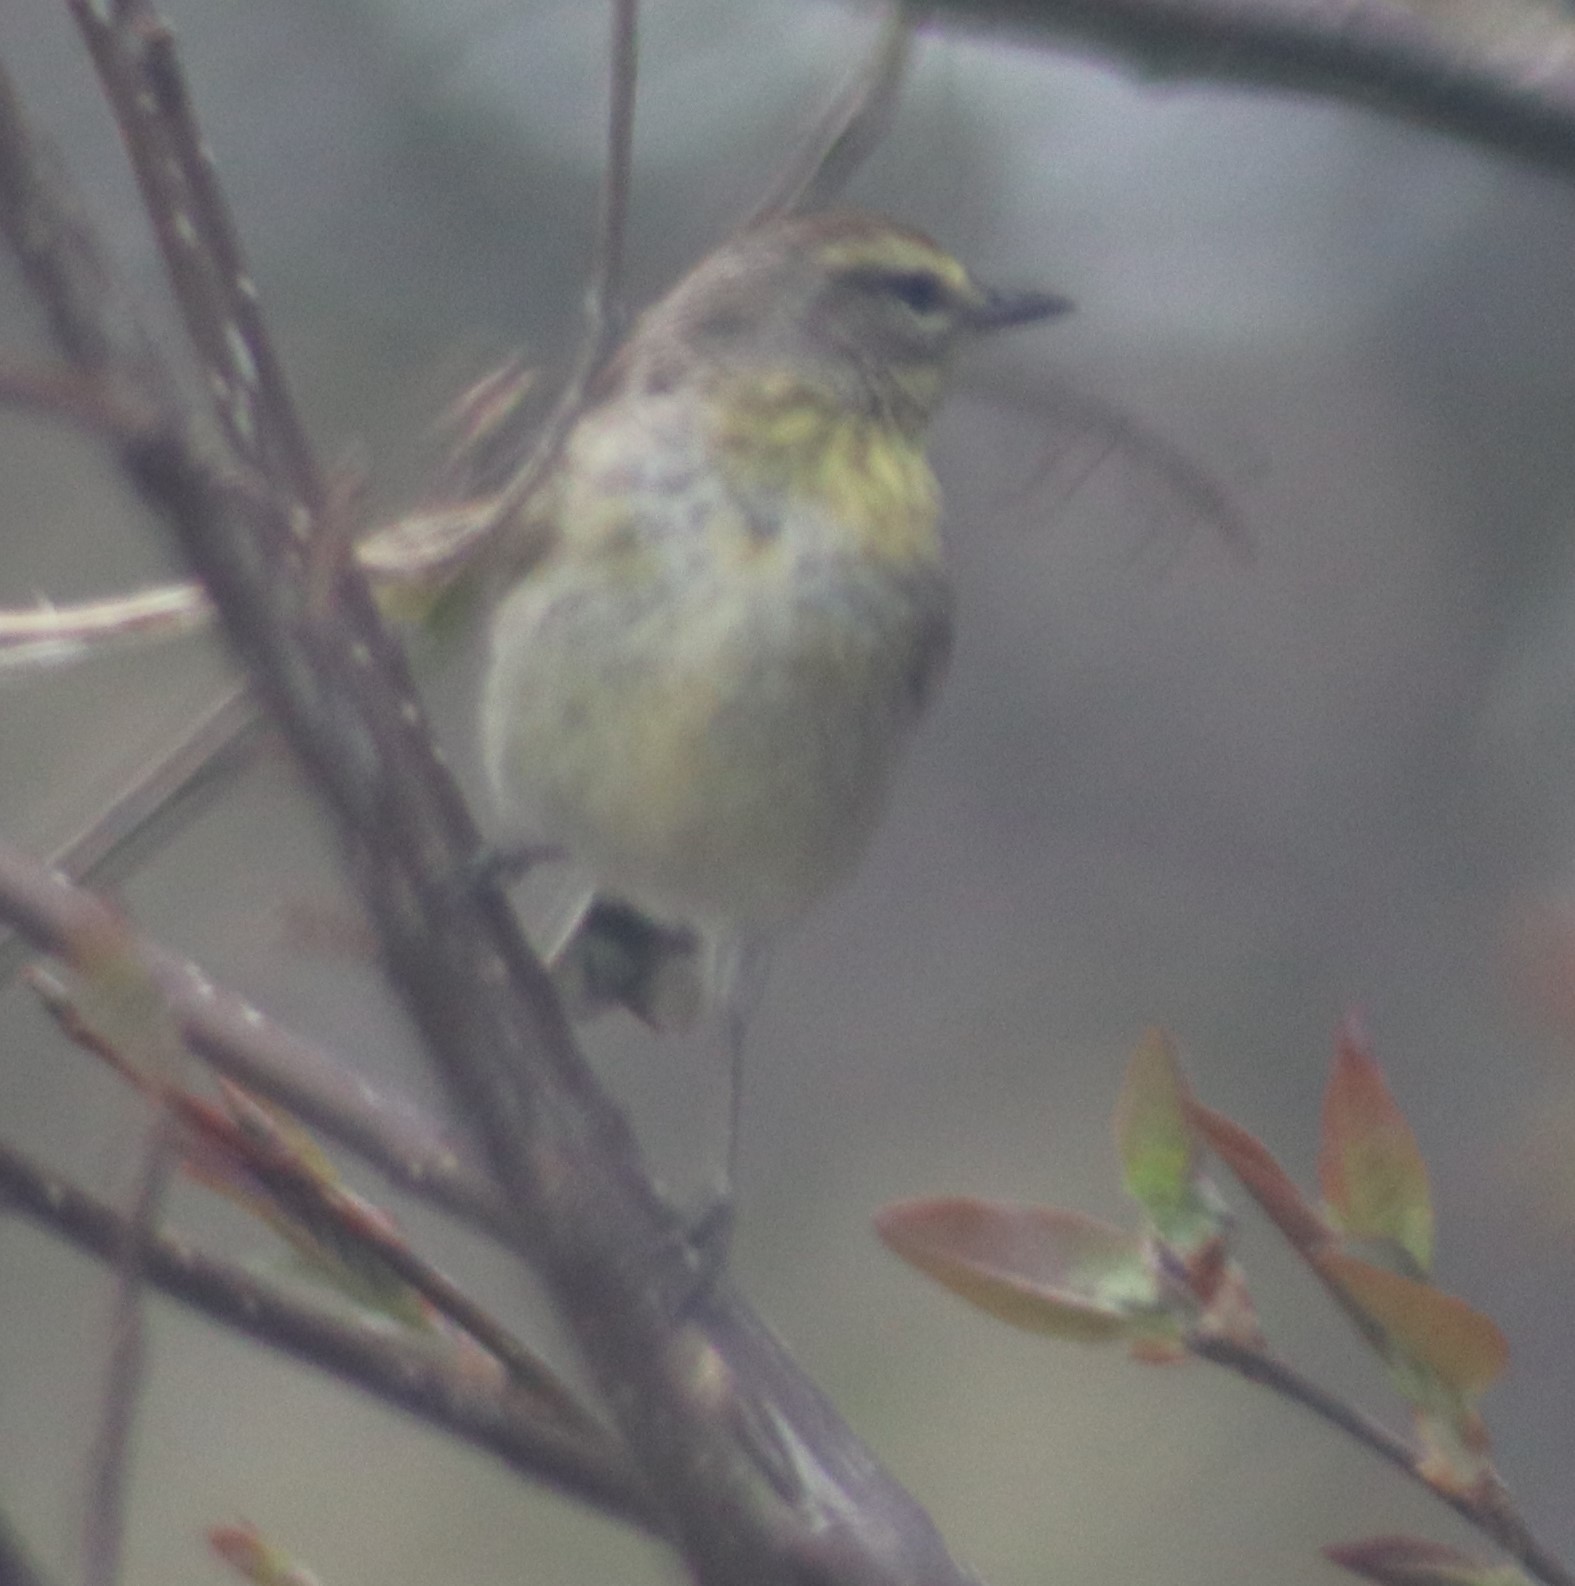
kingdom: Animalia
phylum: Chordata
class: Aves
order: Passeriformes
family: Parulidae
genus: Setophaga
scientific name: Setophaga palmarum
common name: Palm warbler
